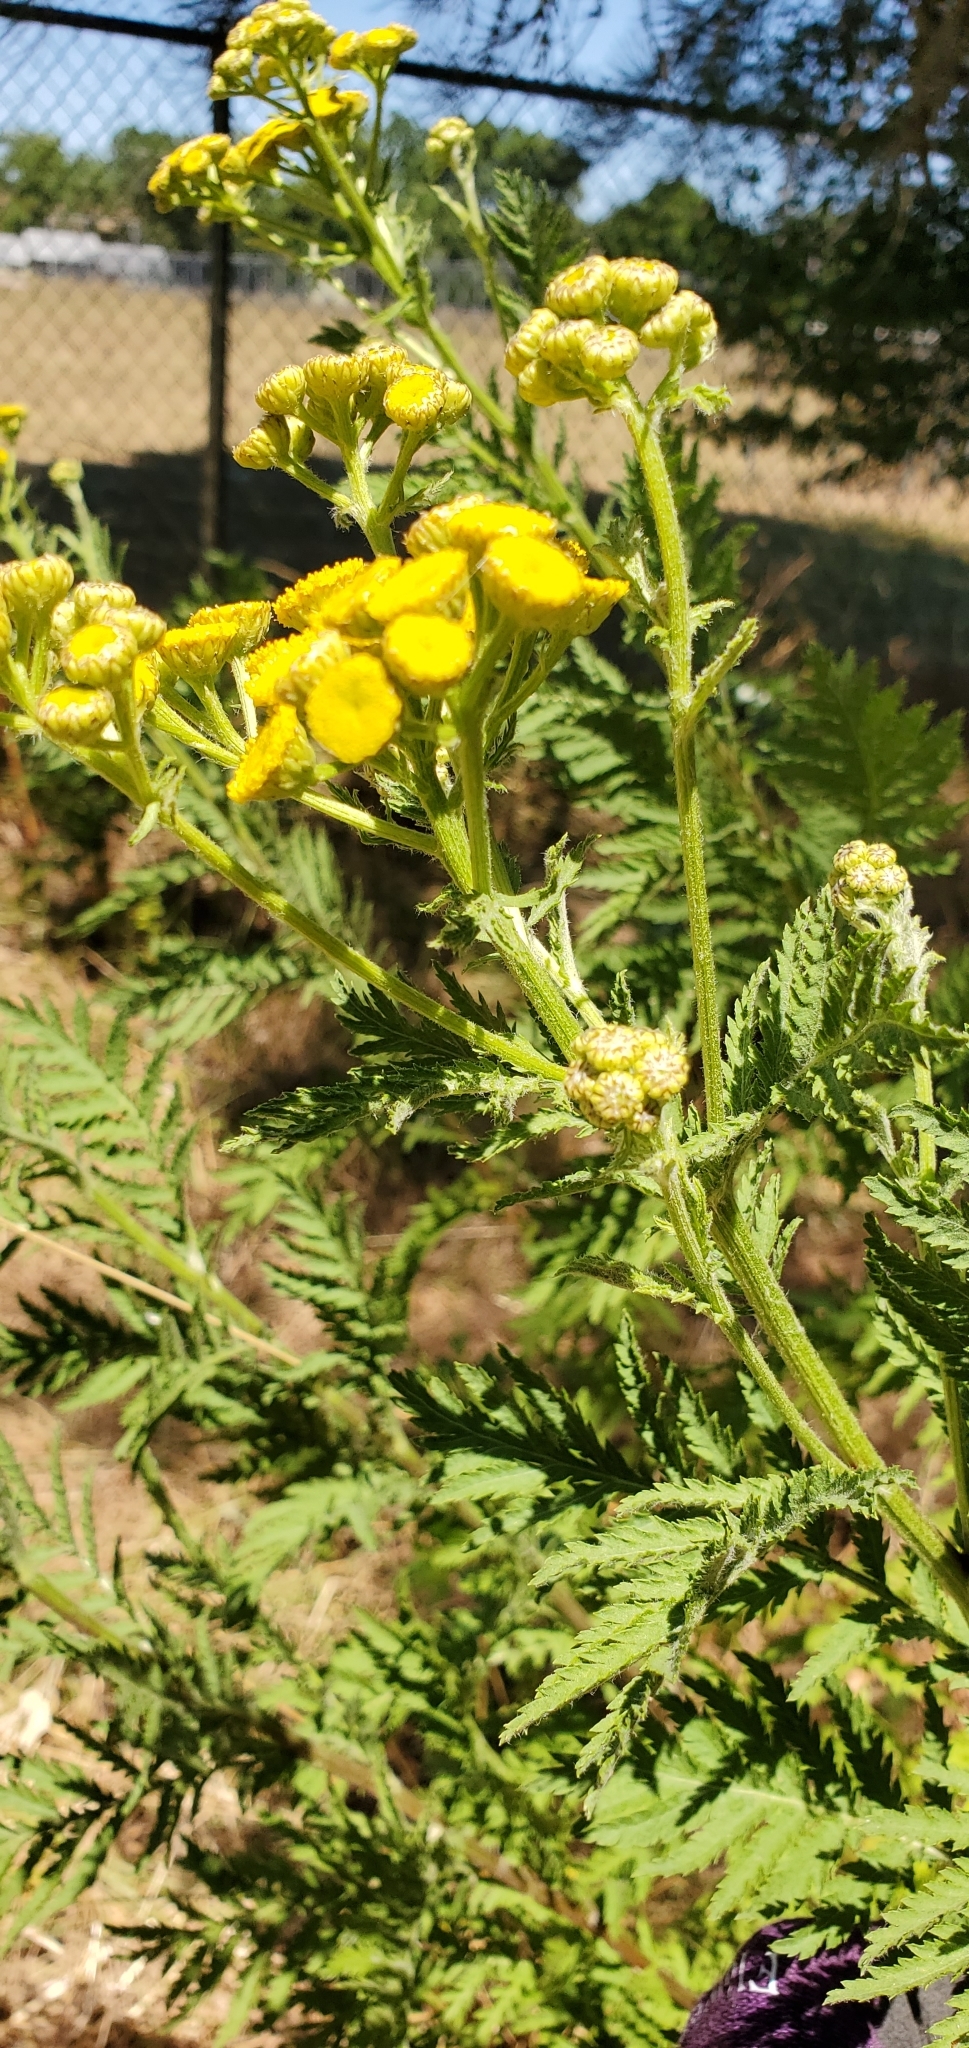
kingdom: Plantae
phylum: Tracheophyta
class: Magnoliopsida
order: Asterales
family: Asteraceae
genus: Tanacetum
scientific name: Tanacetum vulgare
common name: Common tansy
